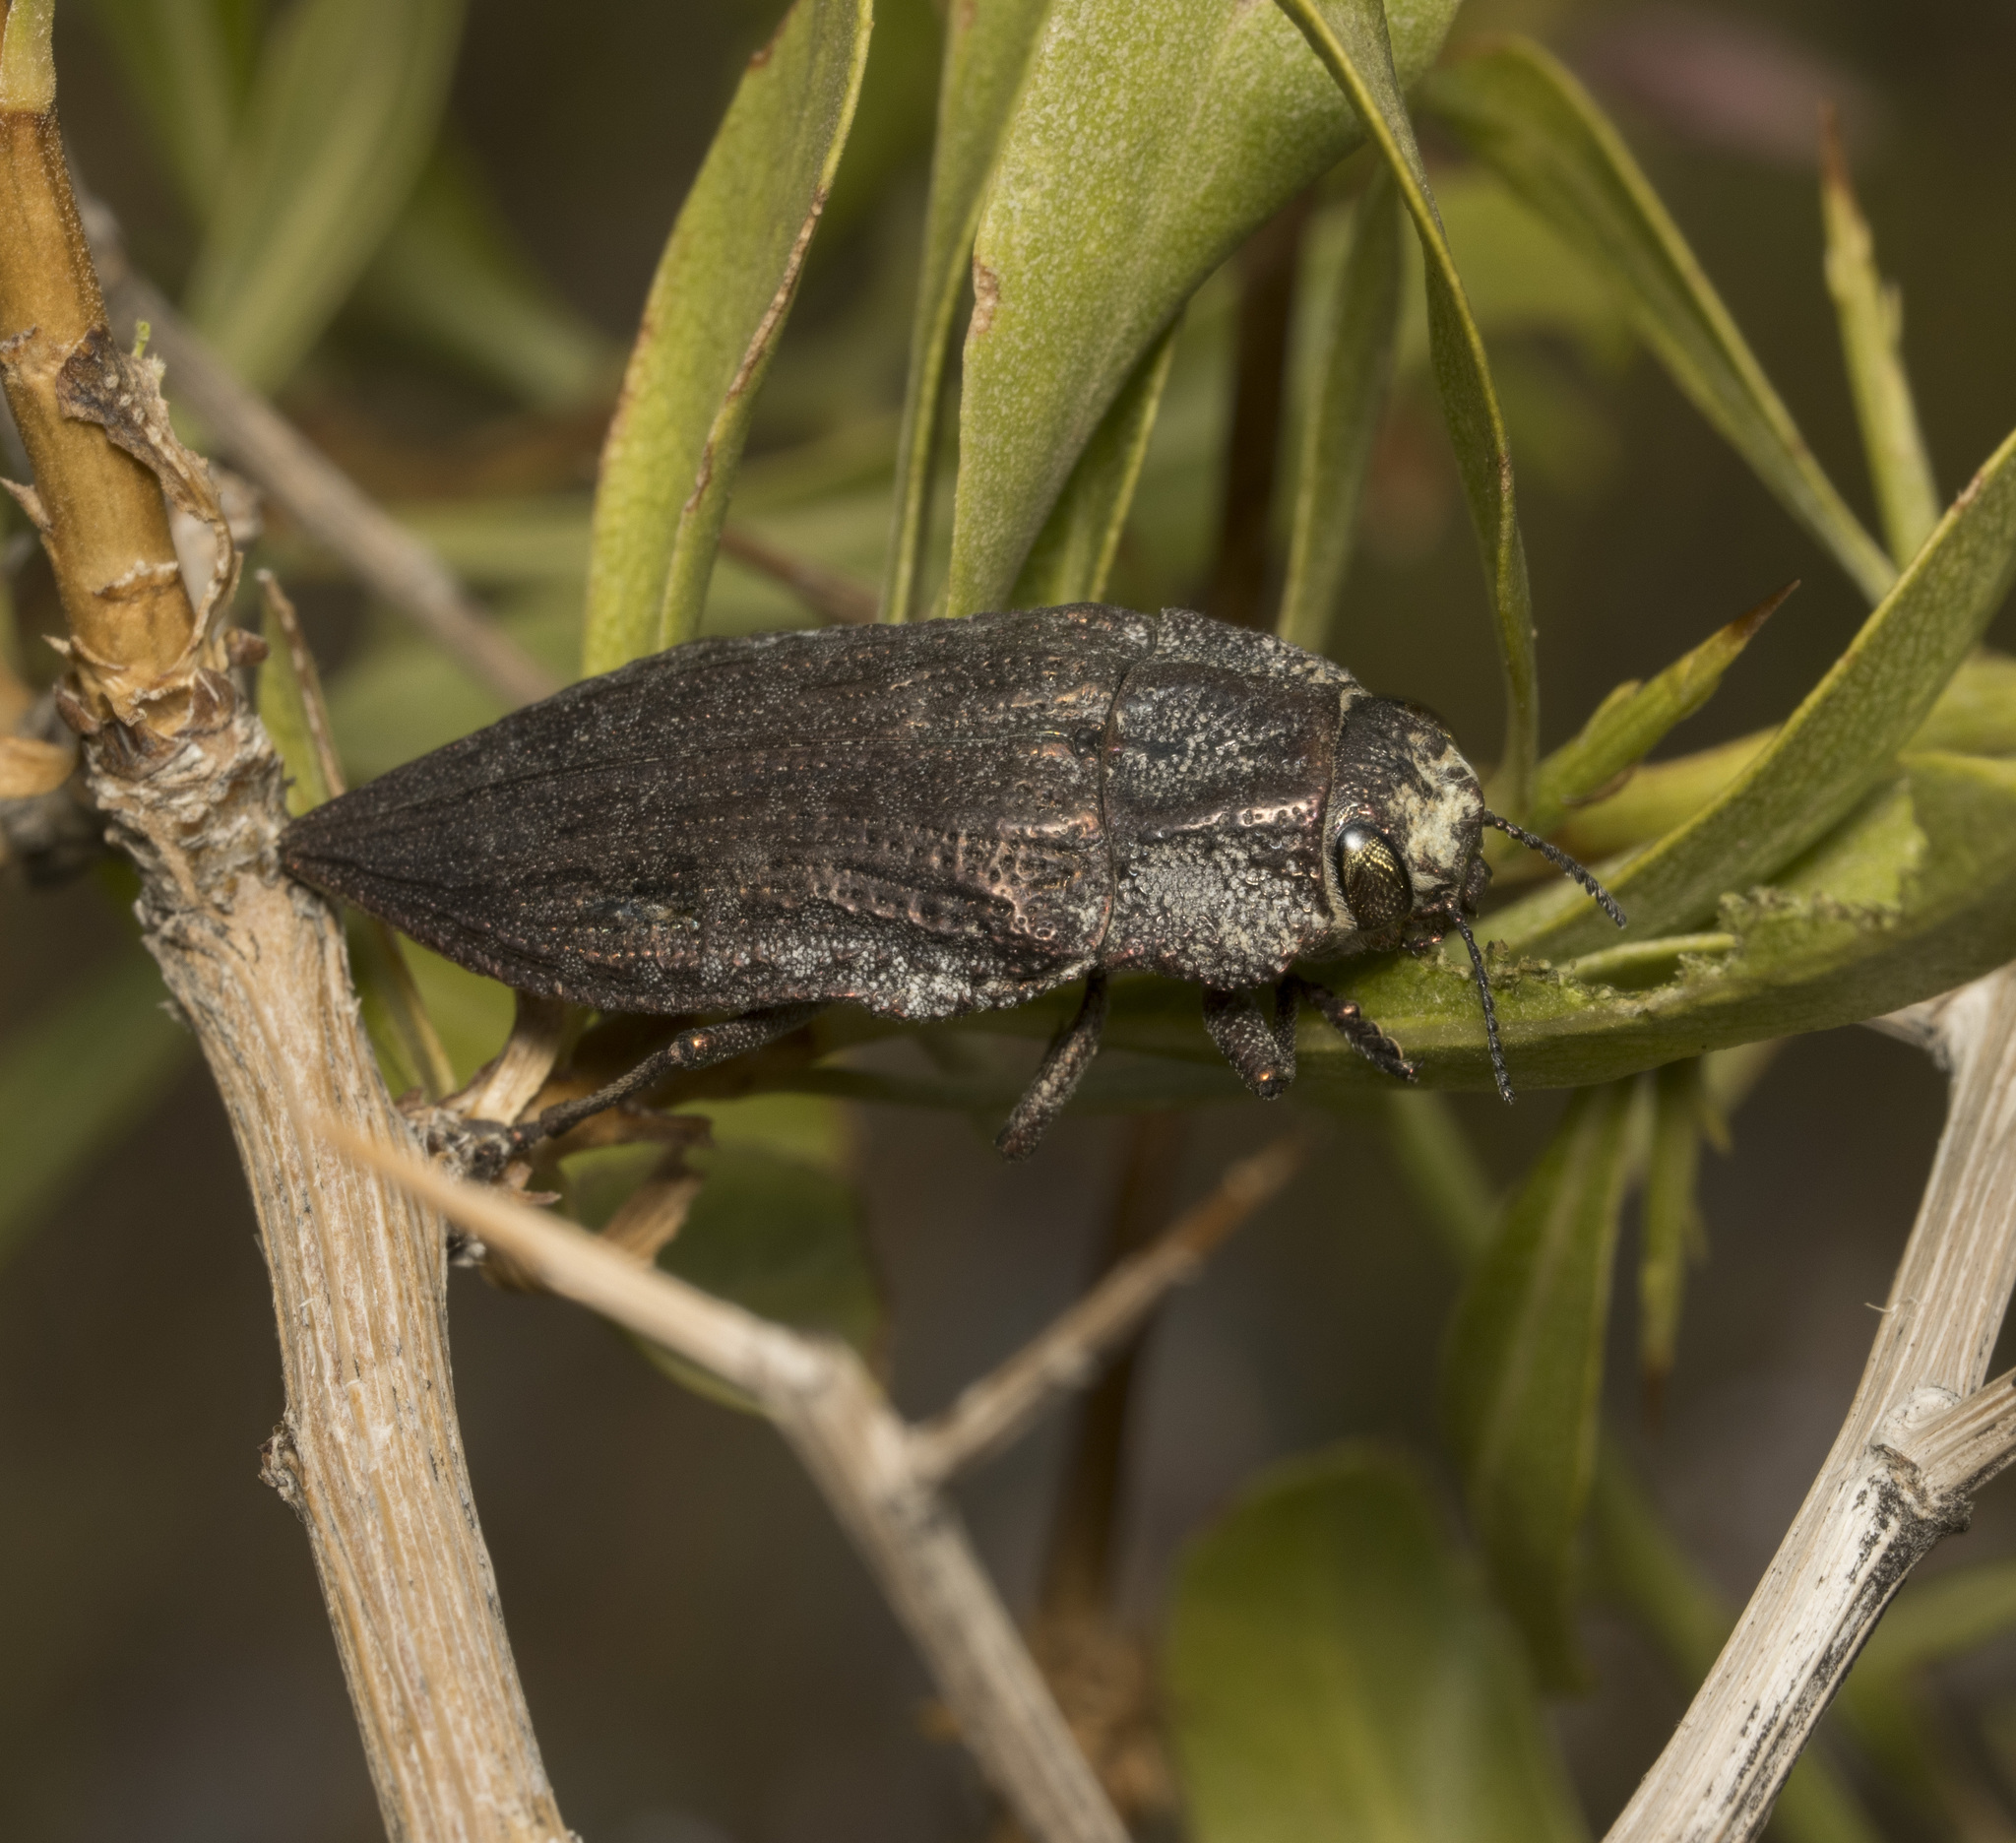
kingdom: Animalia
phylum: Arthropoda
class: Insecta
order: Coleoptera
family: Buprestidae
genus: Ectinogonia
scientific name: Ectinogonia buquetii
